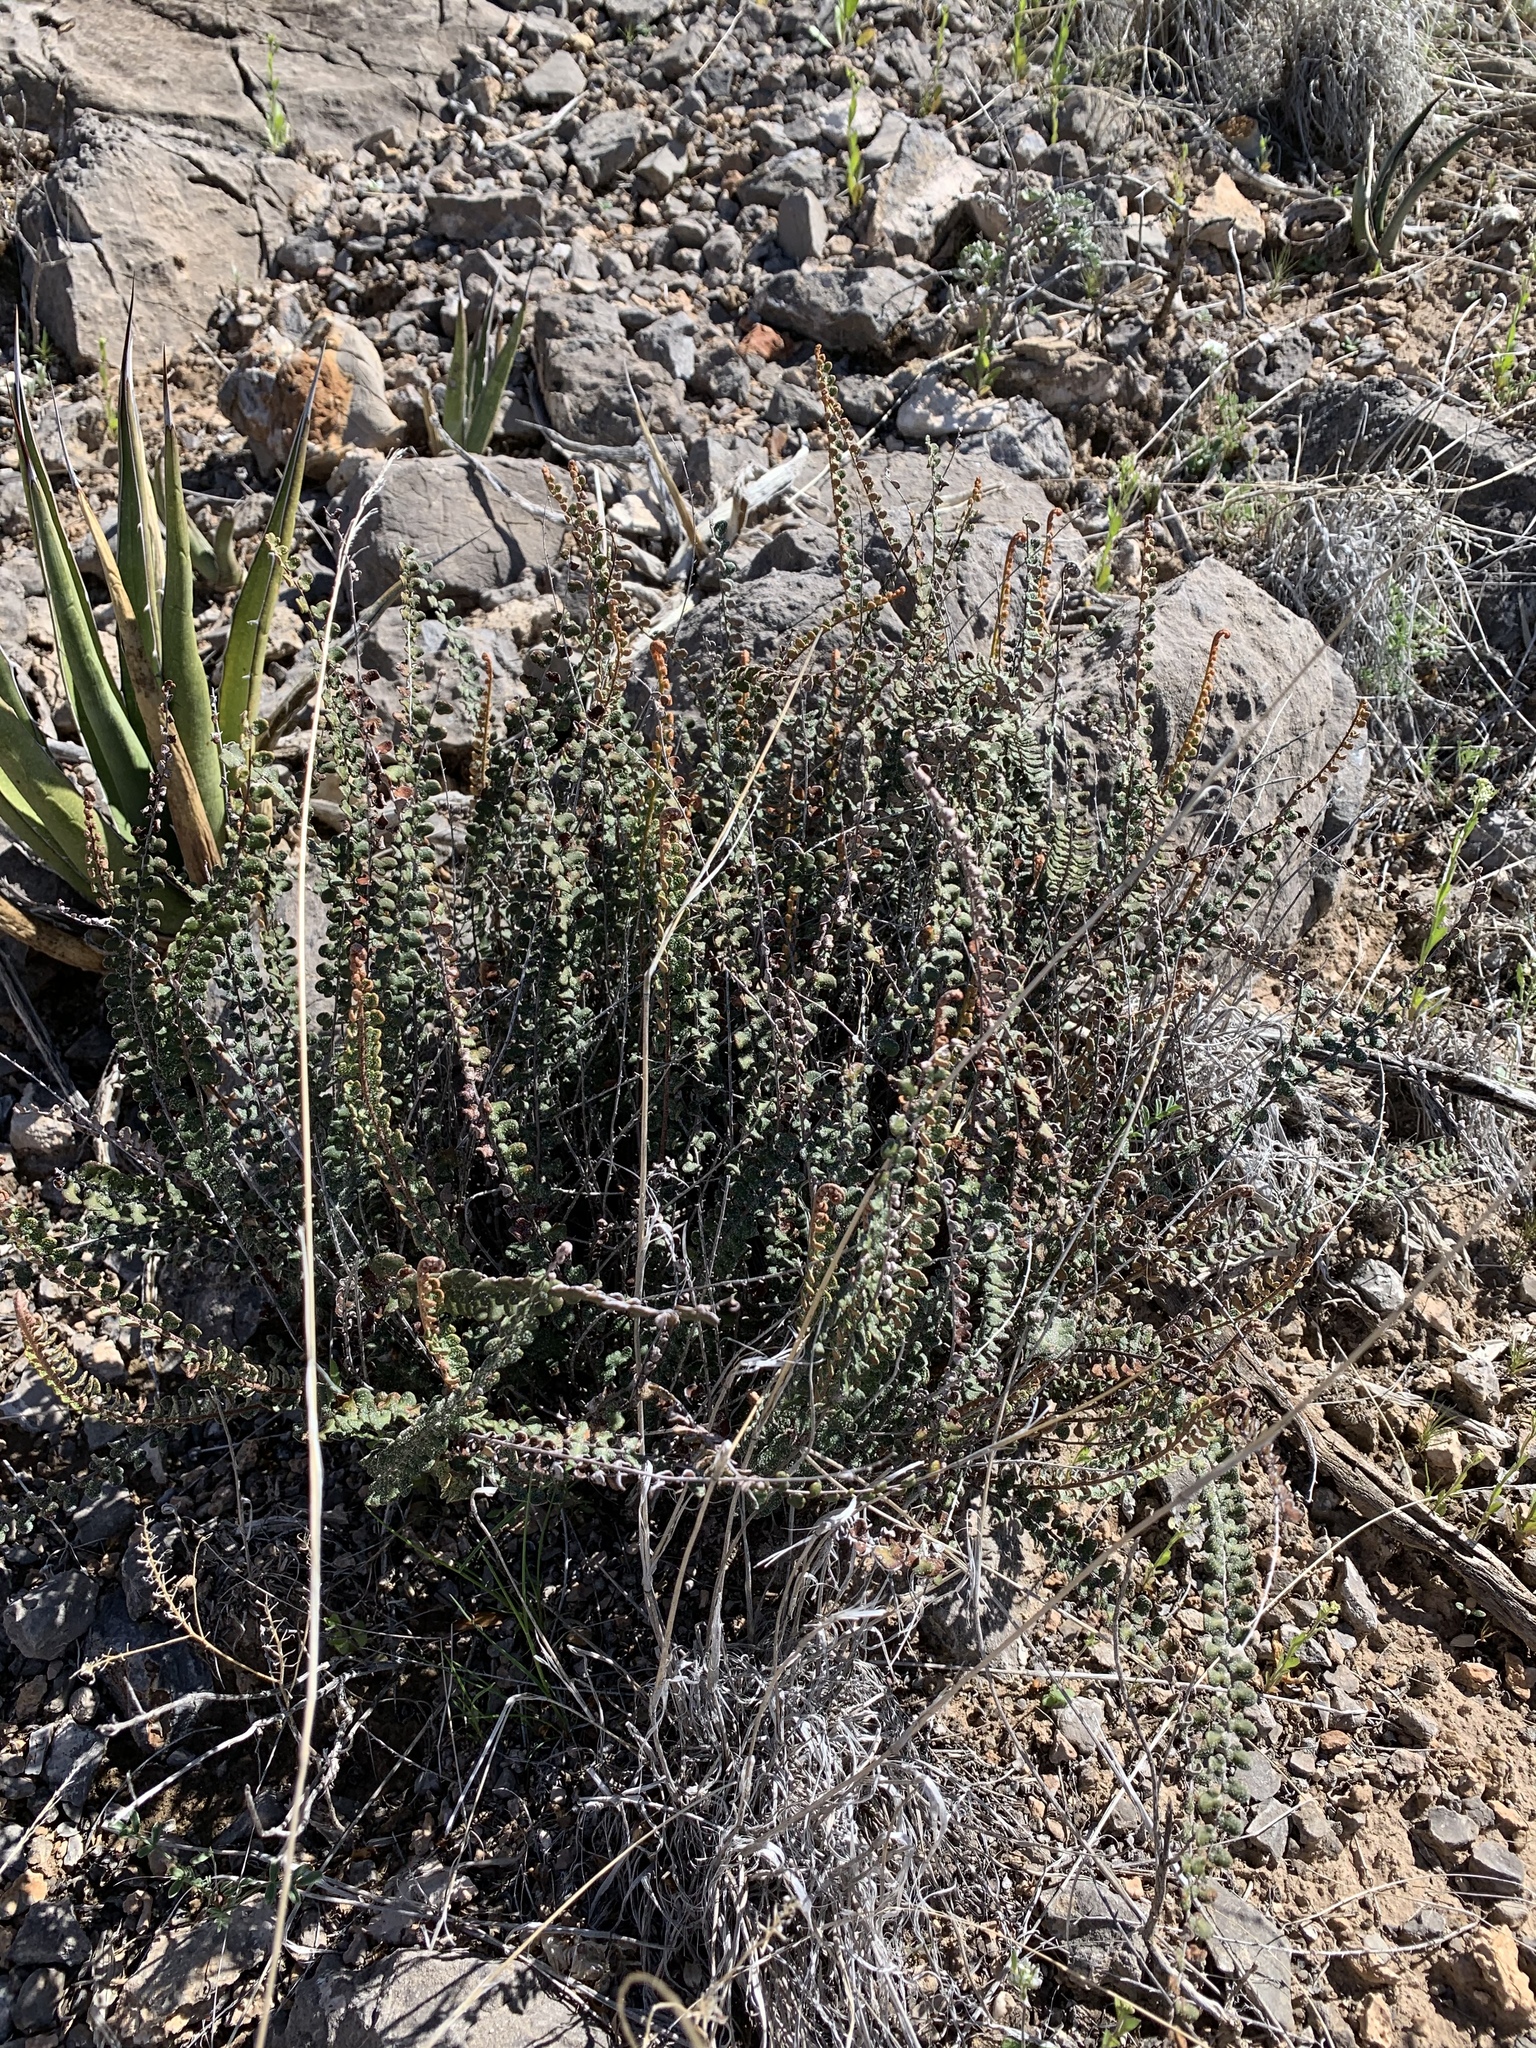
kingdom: Plantae
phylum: Tracheophyta
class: Polypodiopsida
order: Polypodiales
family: Pteridaceae
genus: Astrolepis
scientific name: Astrolepis cochisensis
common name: Scaly cloak fern
